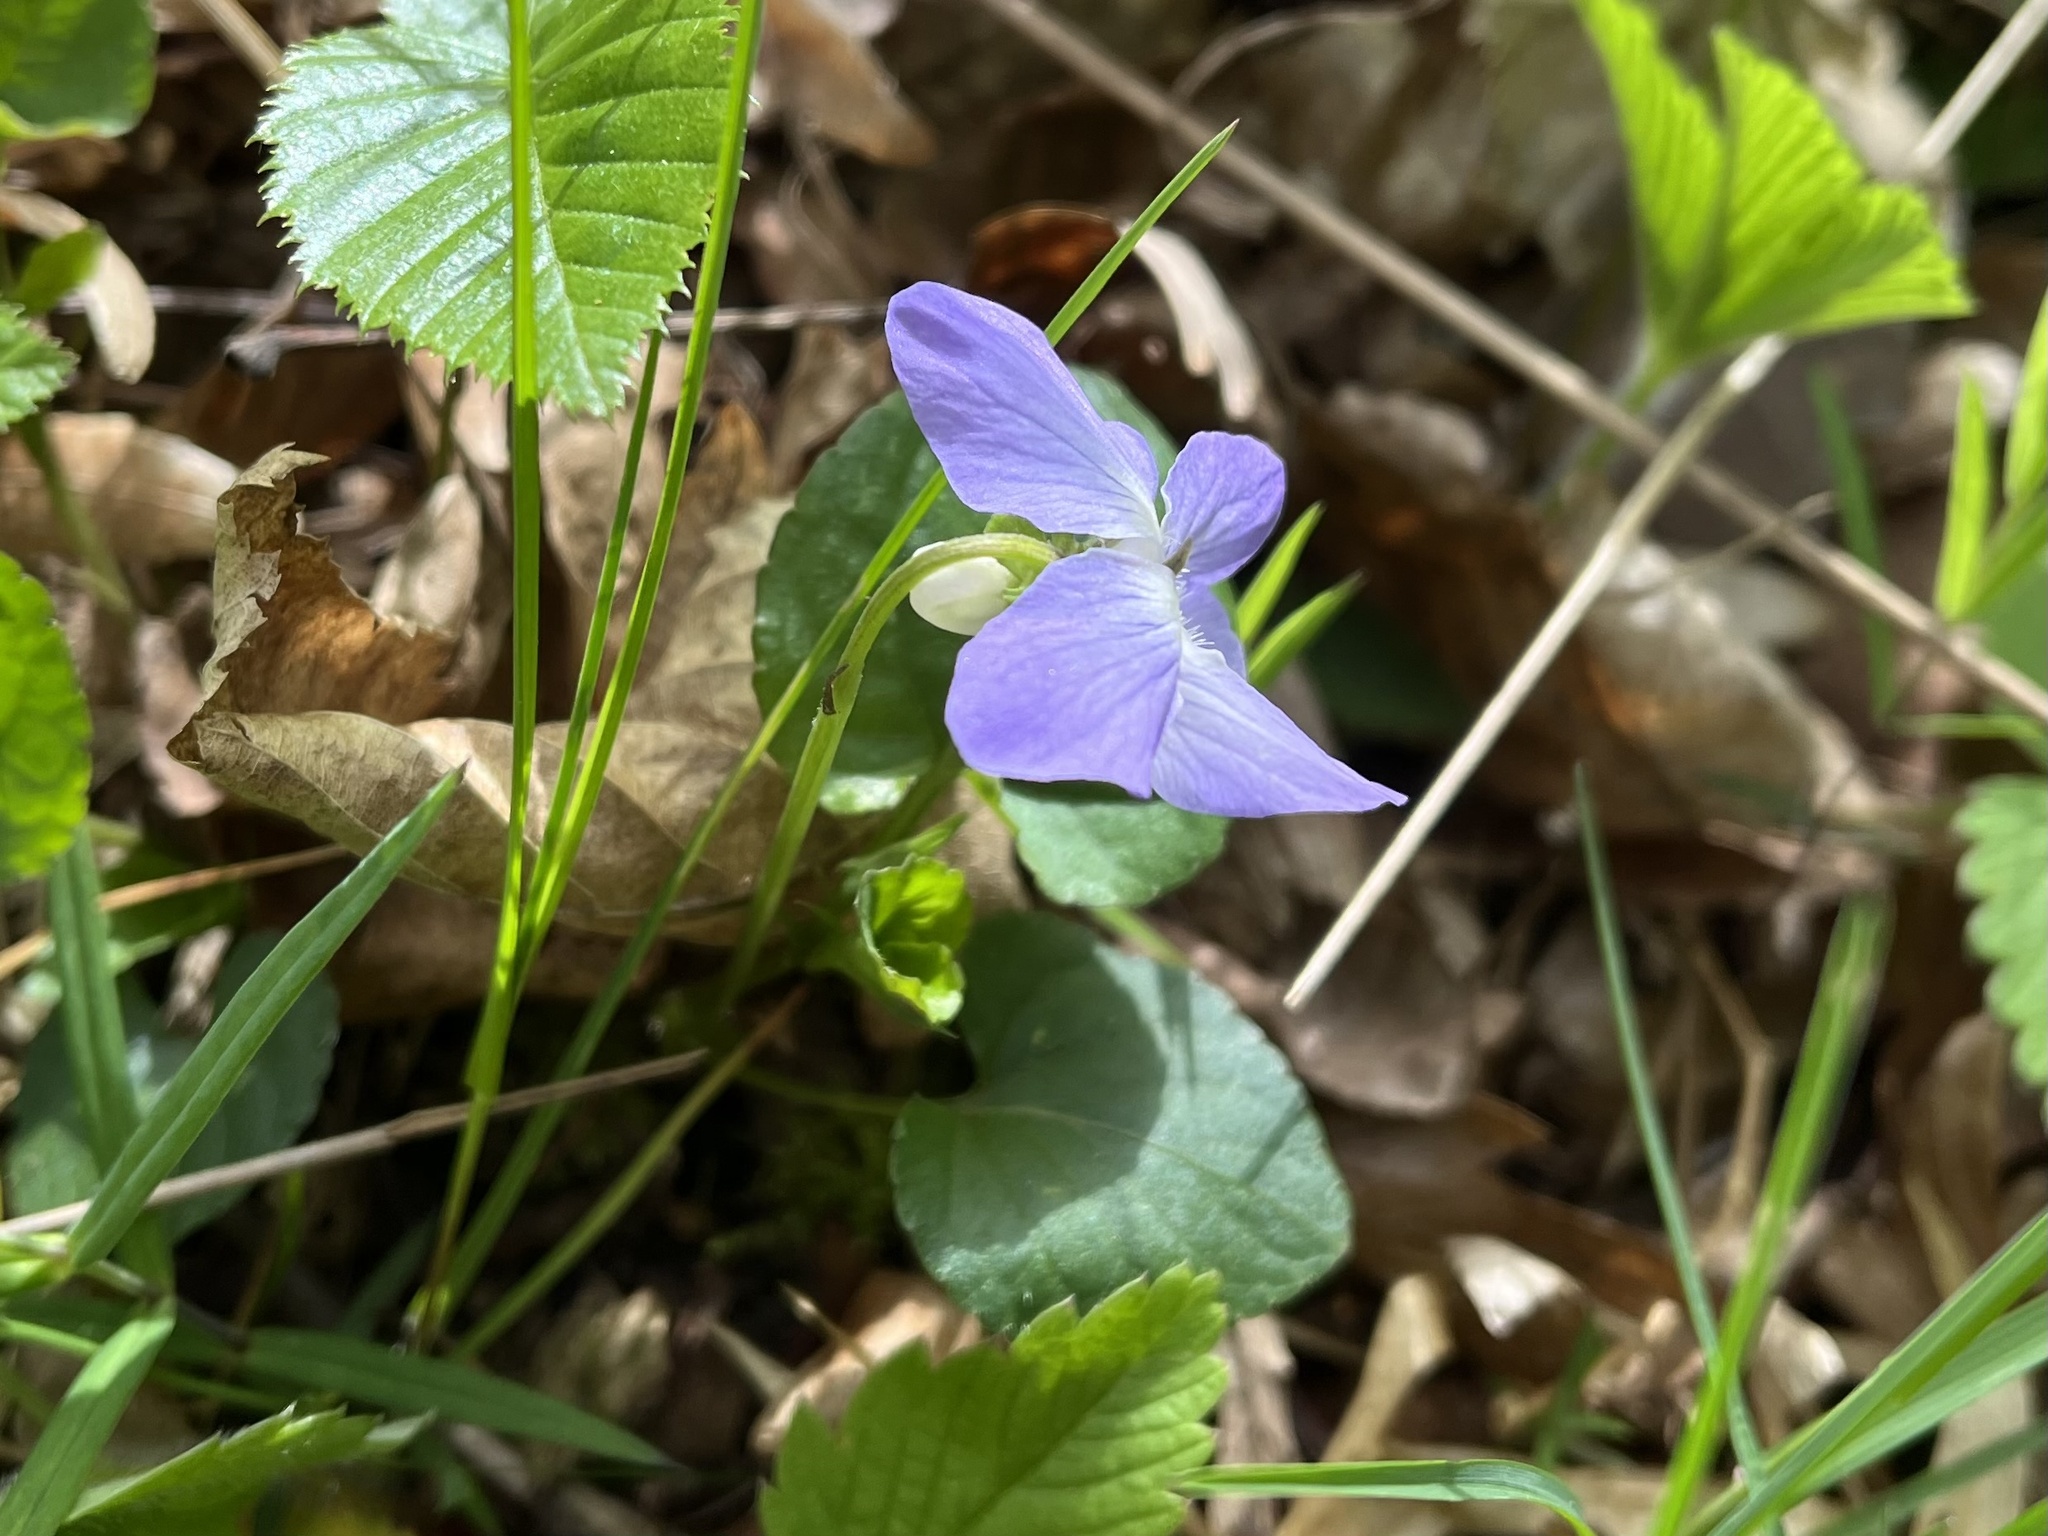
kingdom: Plantae
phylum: Tracheophyta
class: Magnoliopsida
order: Malpighiales
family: Violaceae
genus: Viola
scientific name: Viola riviniana
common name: Common dog-violet
